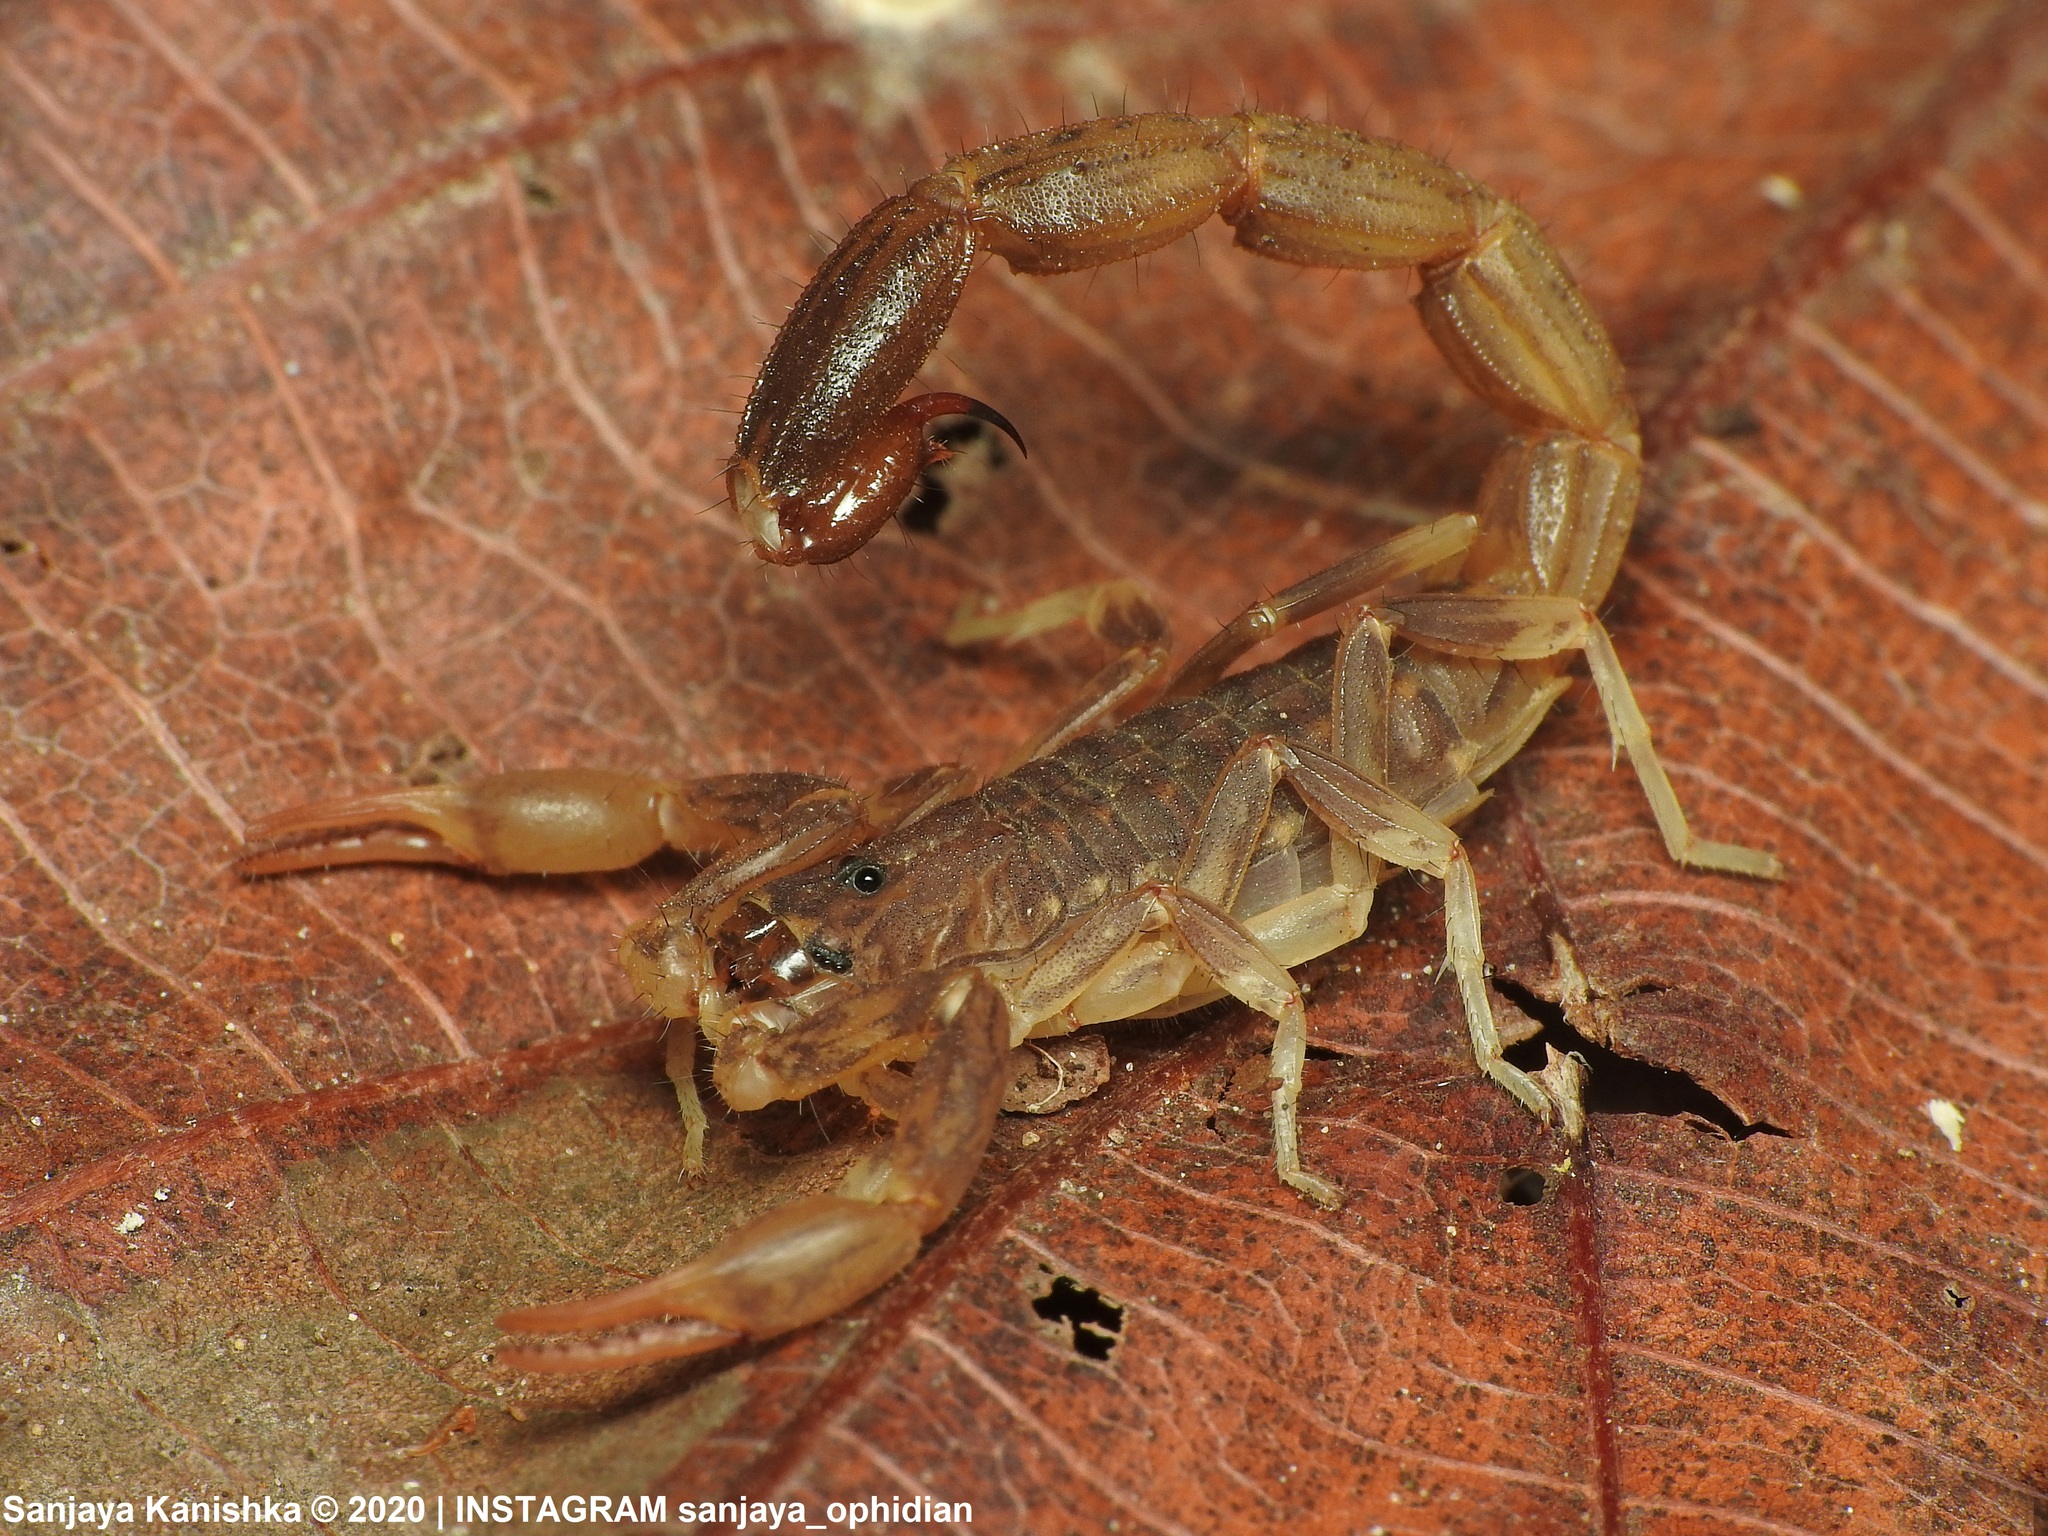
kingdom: Animalia
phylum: Arthropoda
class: Arachnida
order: Scorpiones
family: Buthidae
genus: Lychas
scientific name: Lychas srilankensis
